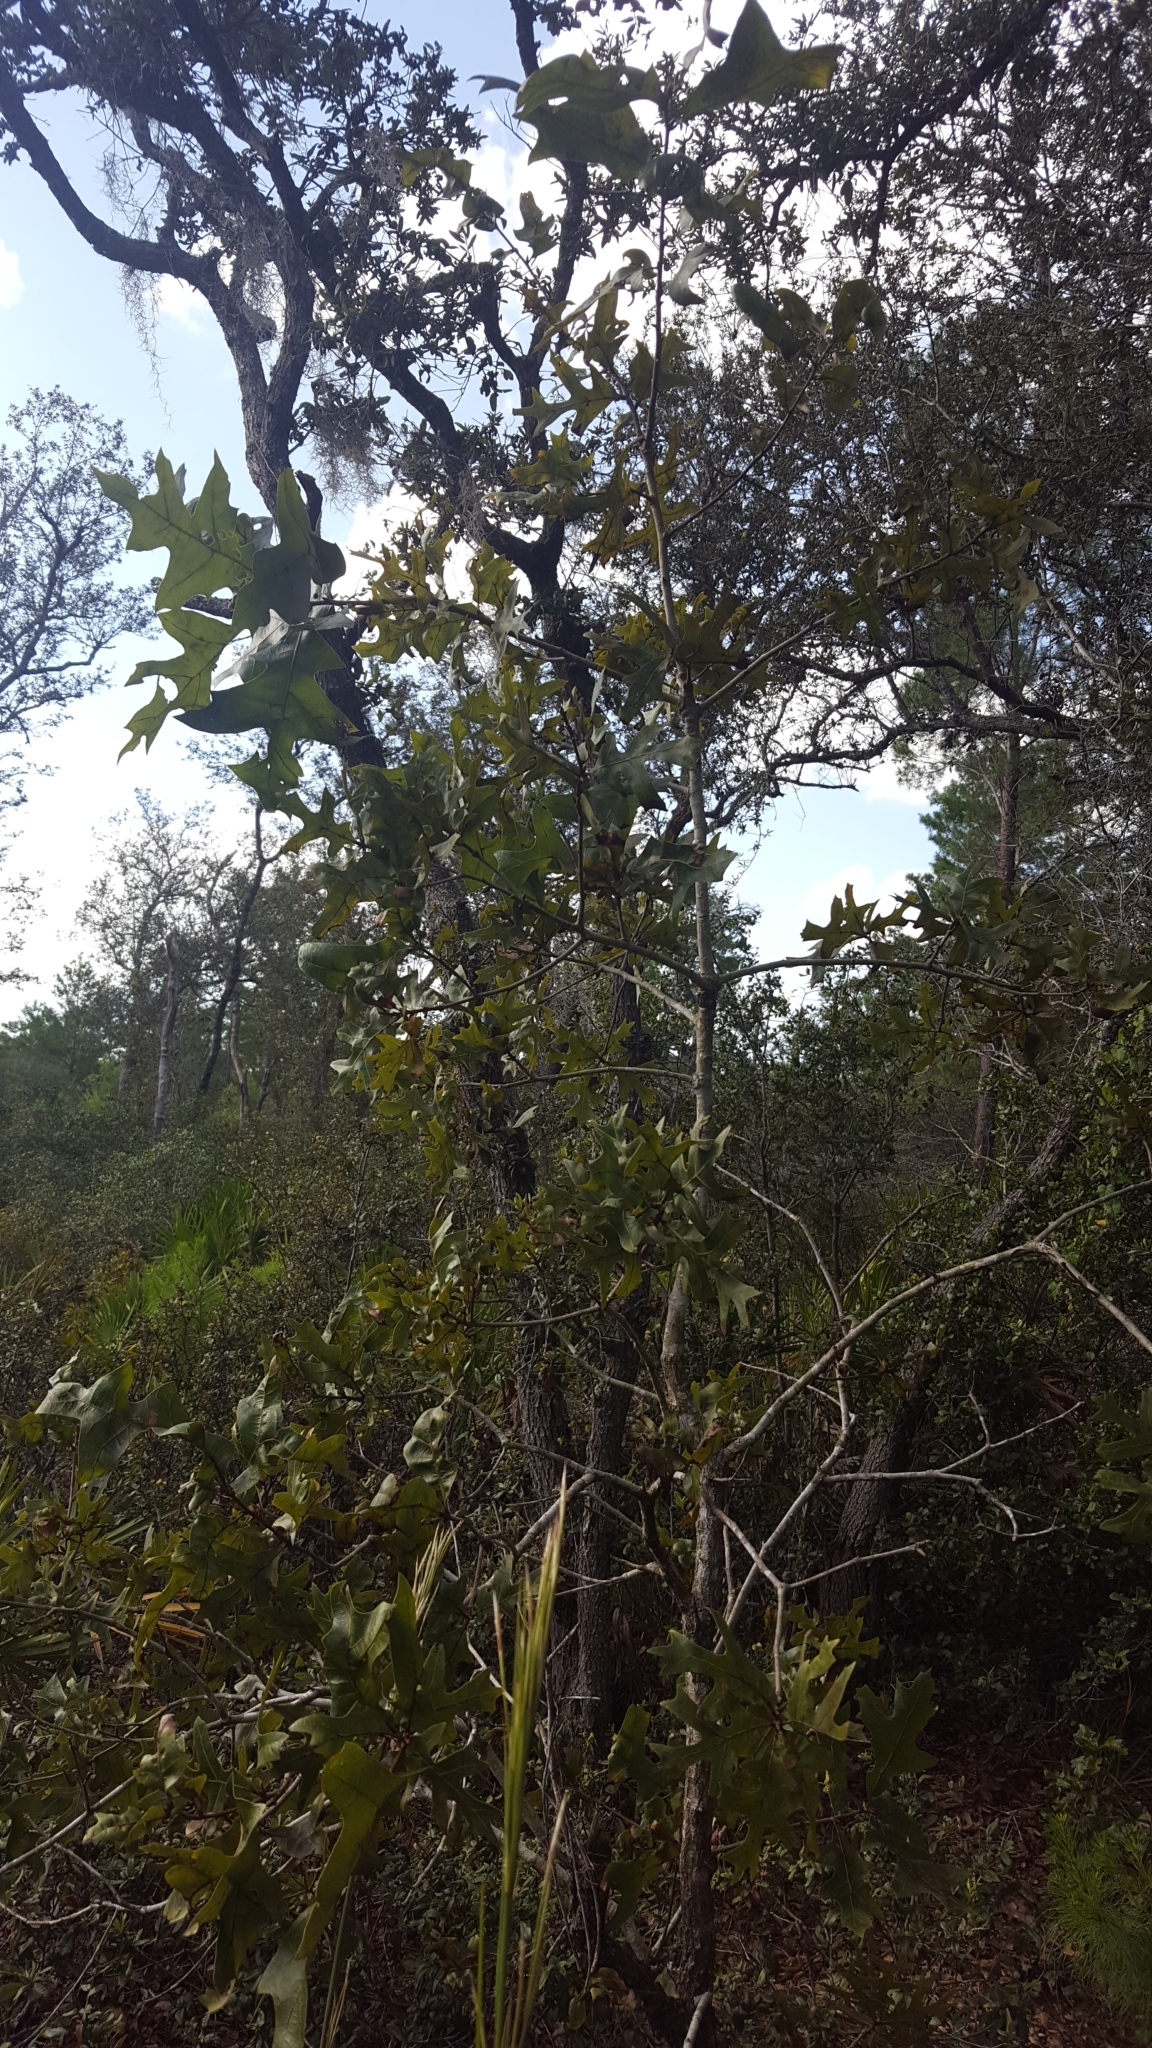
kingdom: Plantae
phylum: Tracheophyta
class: Magnoliopsida
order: Fagales
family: Fagaceae
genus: Quercus
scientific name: Quercus laevis
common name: Turkey oak
